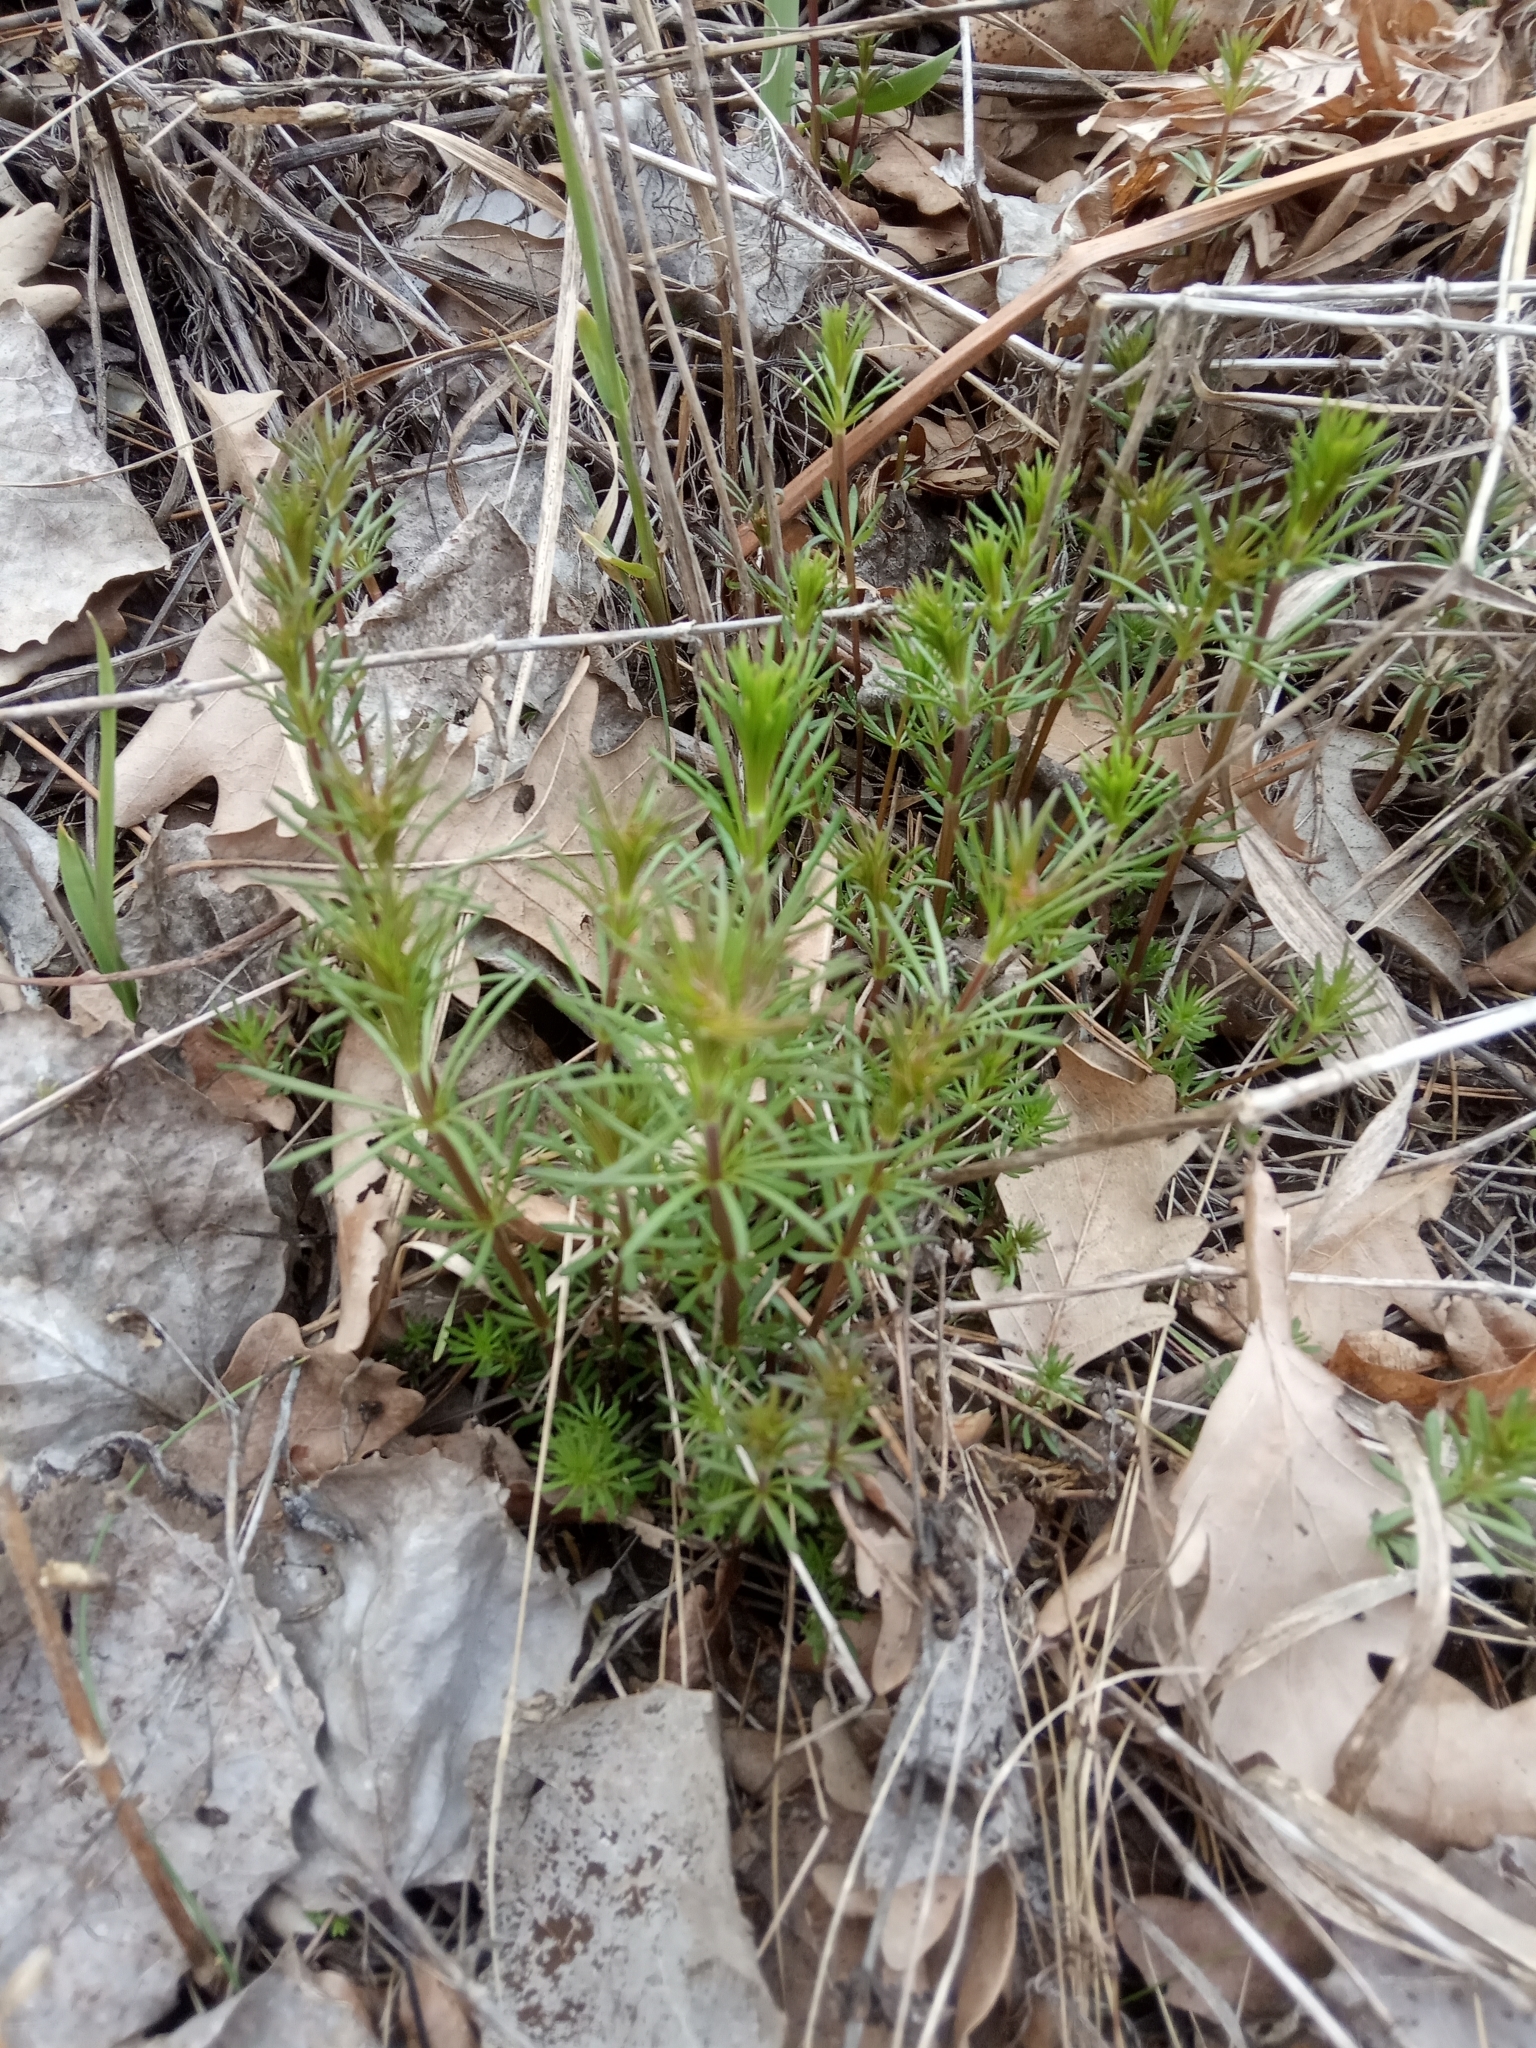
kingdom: Plantae
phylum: Tracheophyta
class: Magnoliopsida
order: Gentianales
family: Rubiaceae
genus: Galium
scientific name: Galium verum
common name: Lady's bedstraw
